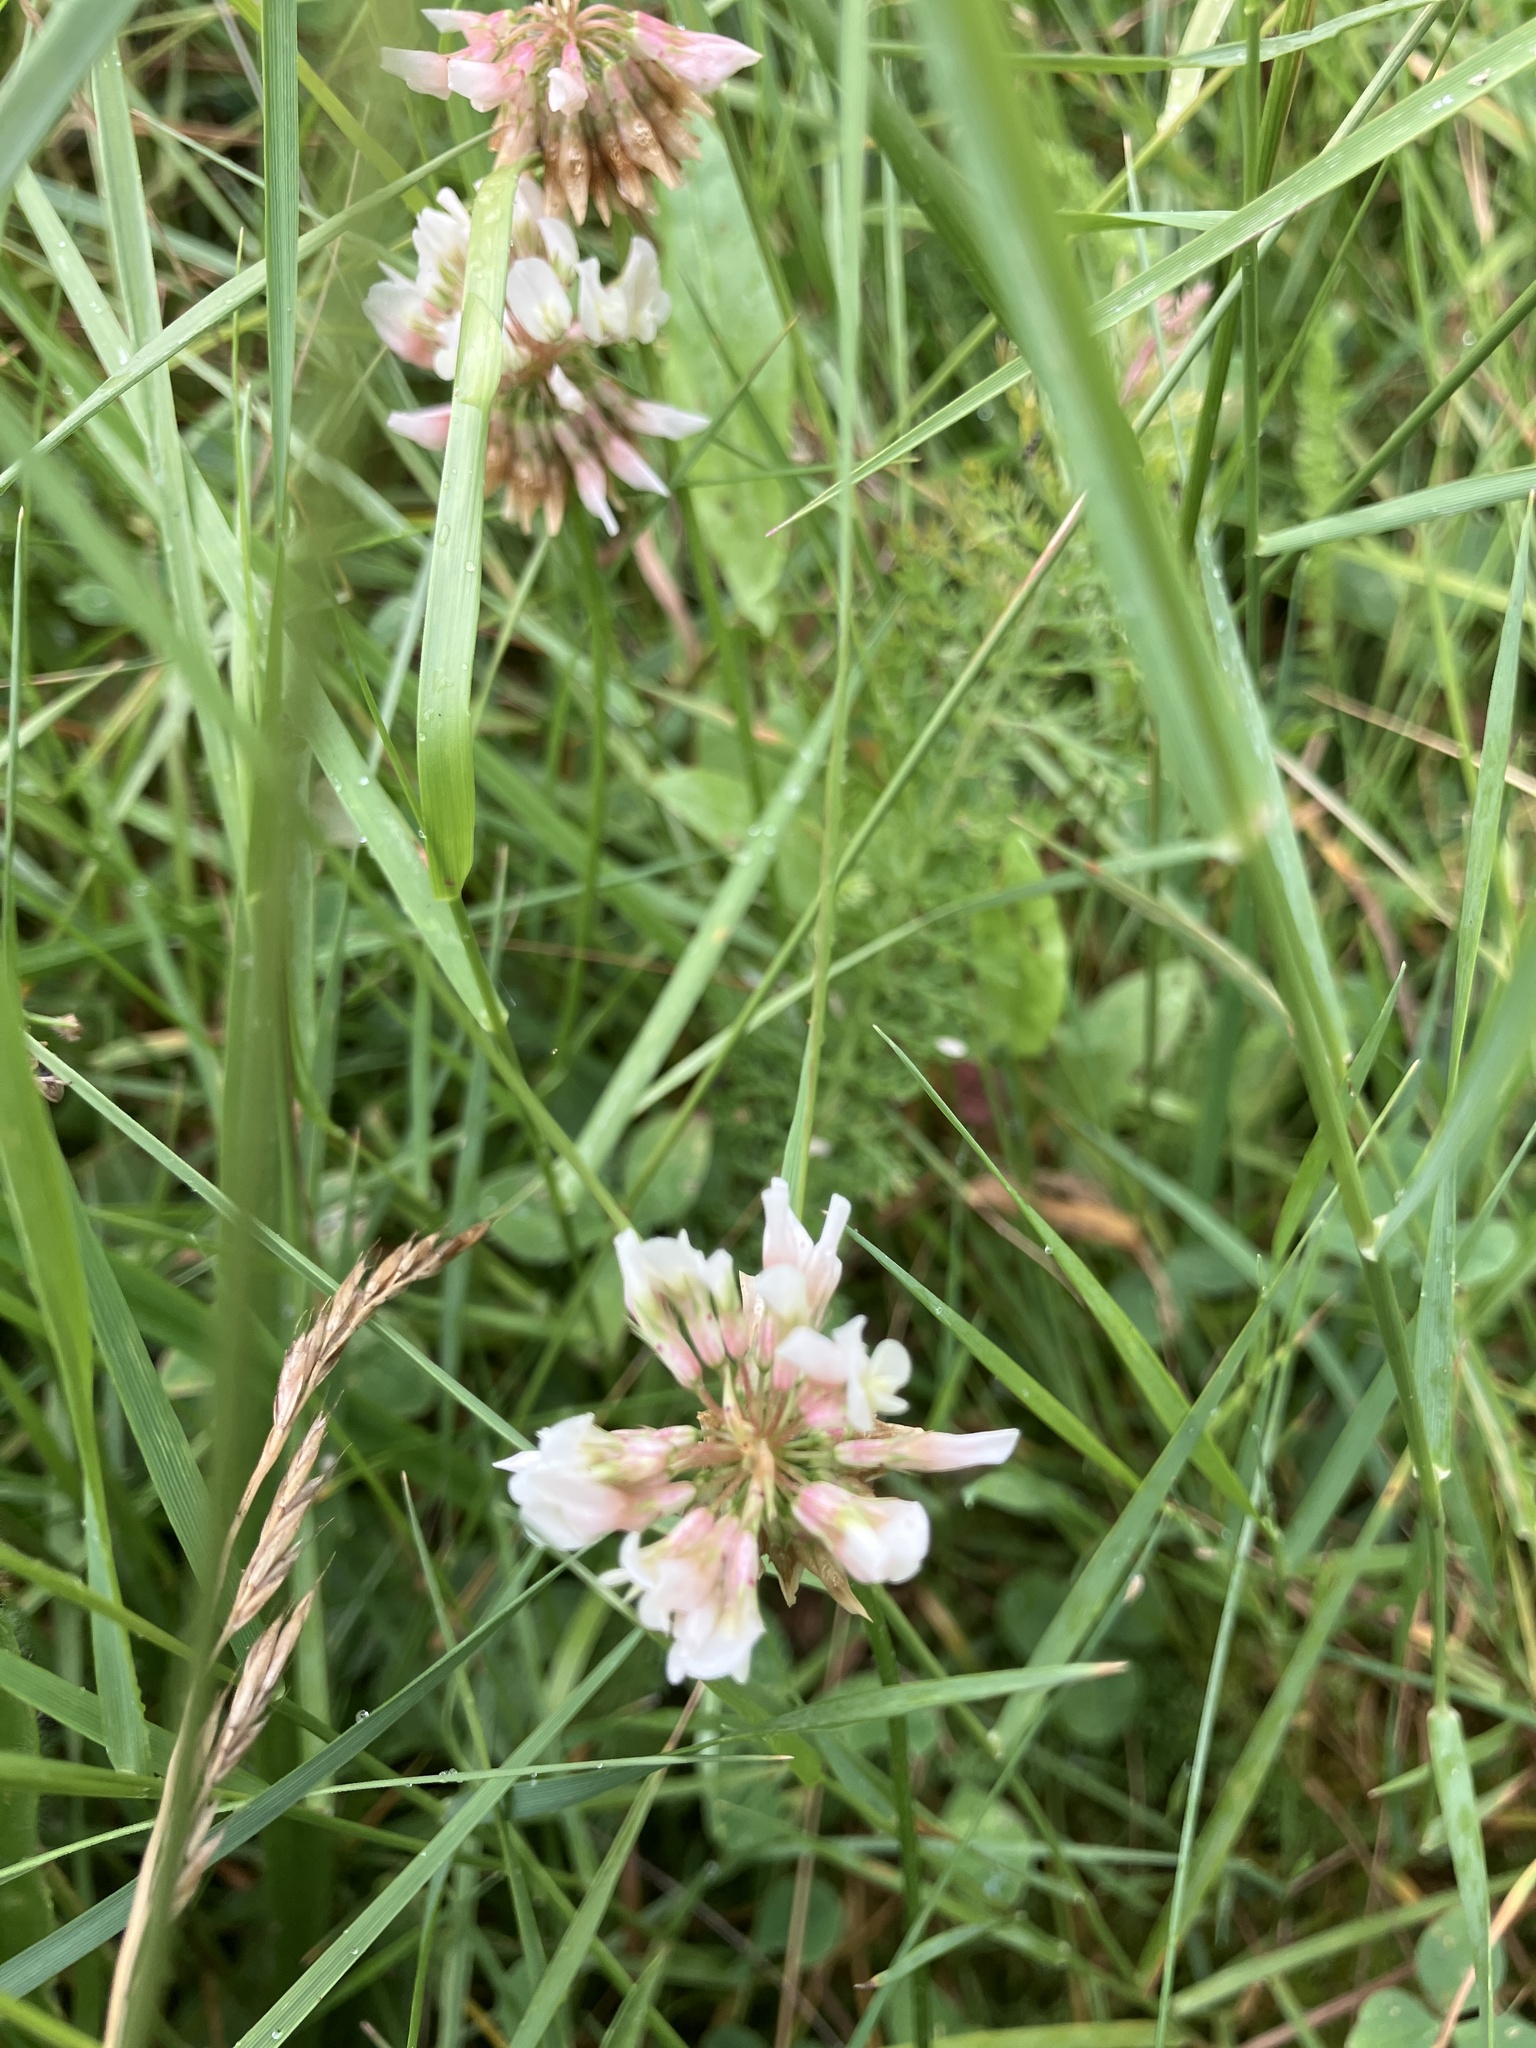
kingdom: Plantae
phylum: Tracheophyta
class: Magnoliopsida
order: Fabales
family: Fabaceae
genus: Trifolium
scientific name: Trifolium repens
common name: White clover
